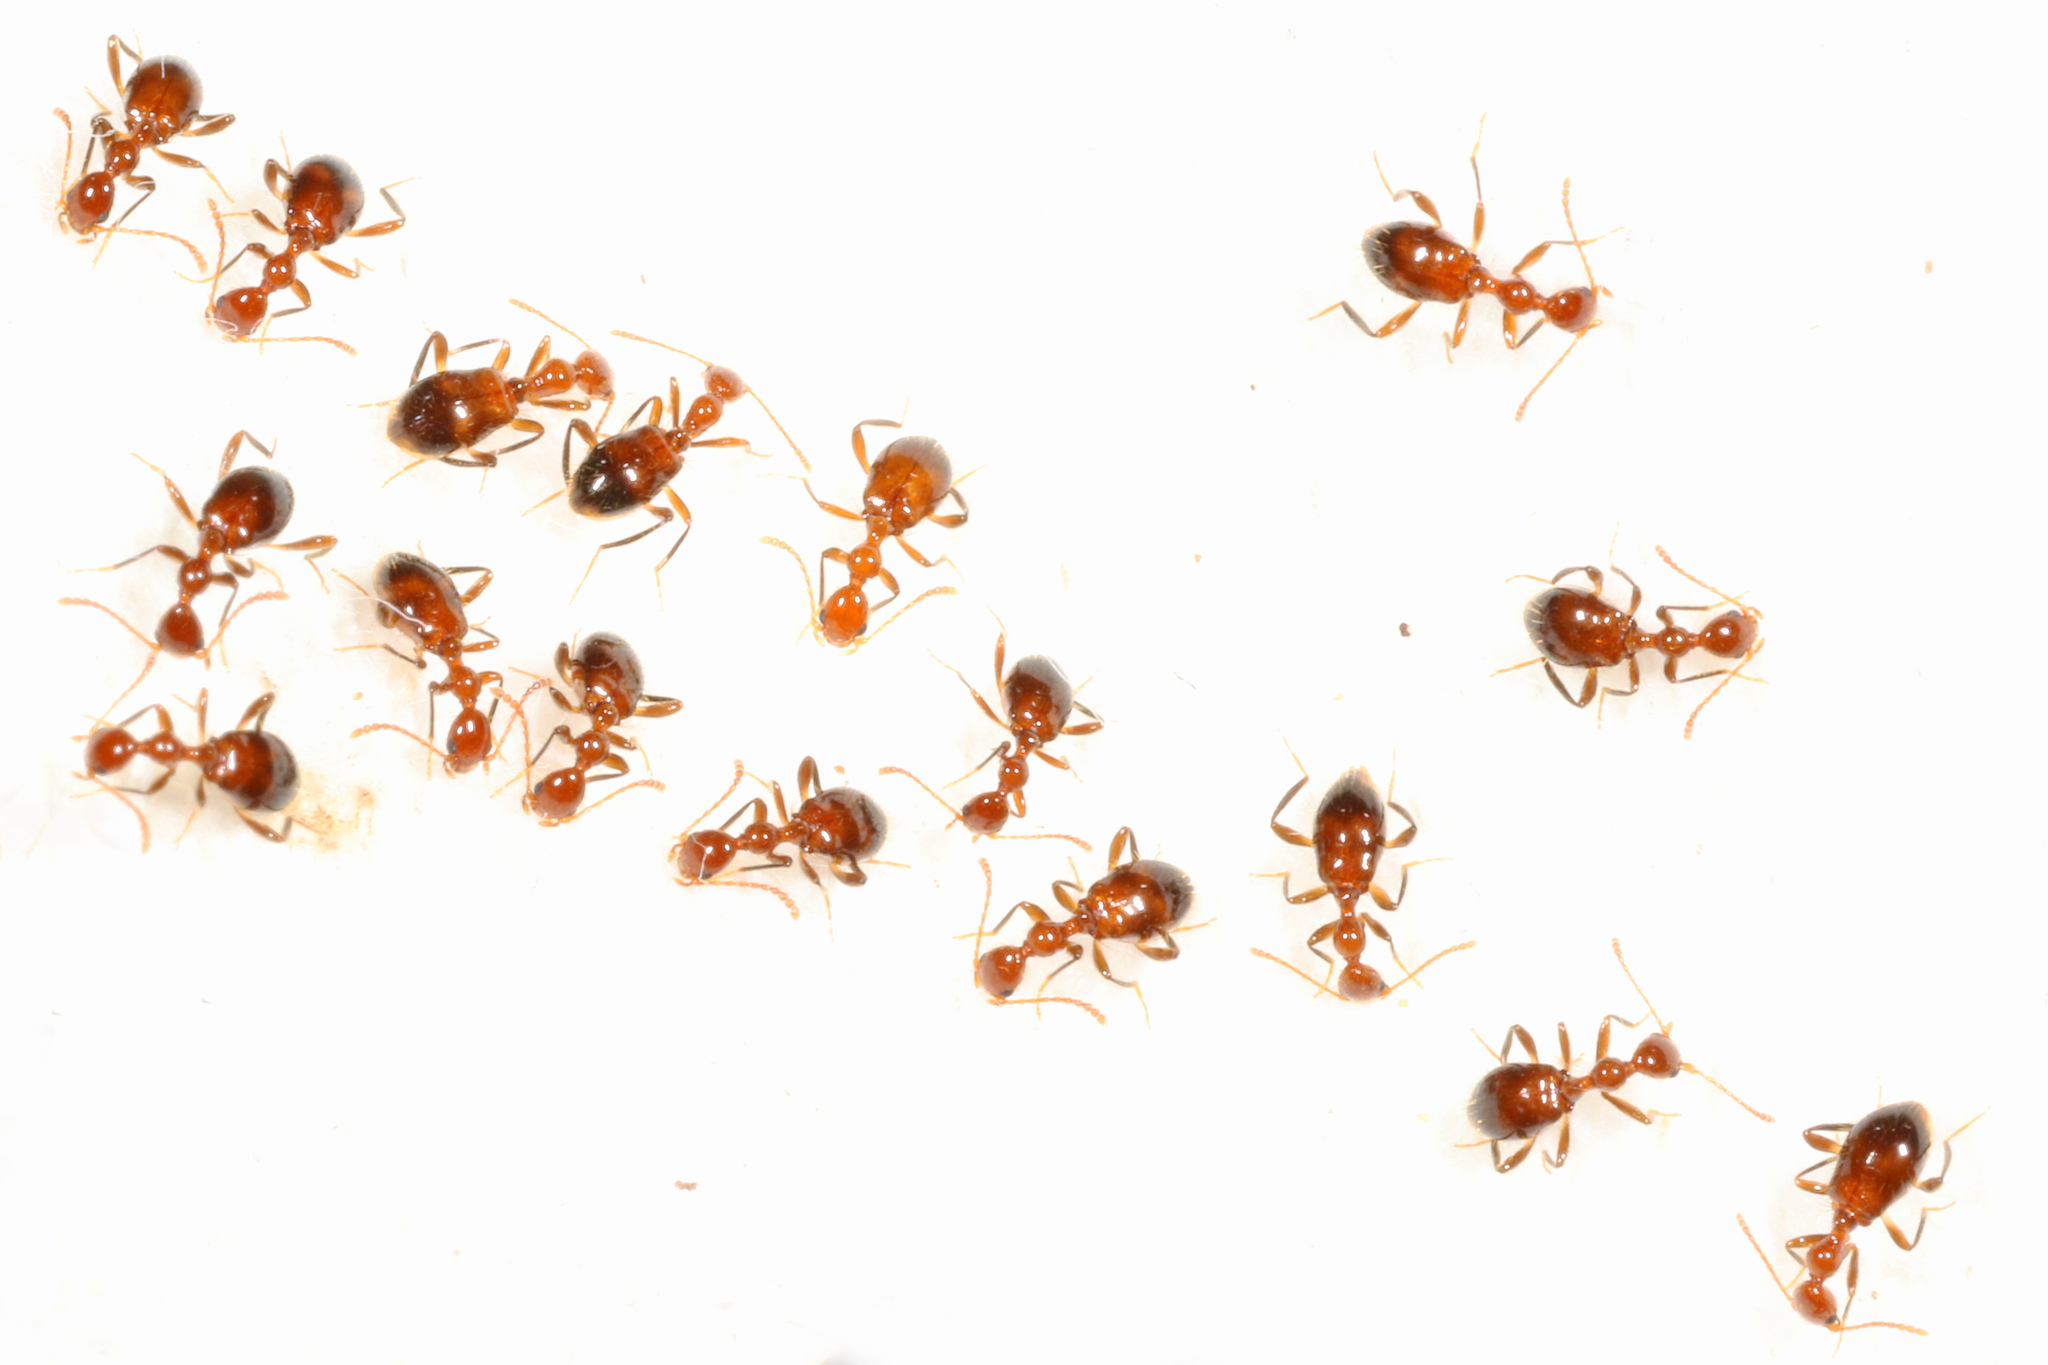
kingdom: Animalia
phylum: Arthropoda
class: Insecta
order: Coleoptera
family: Anthicidae
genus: Acanthinus
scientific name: Acanthinus
